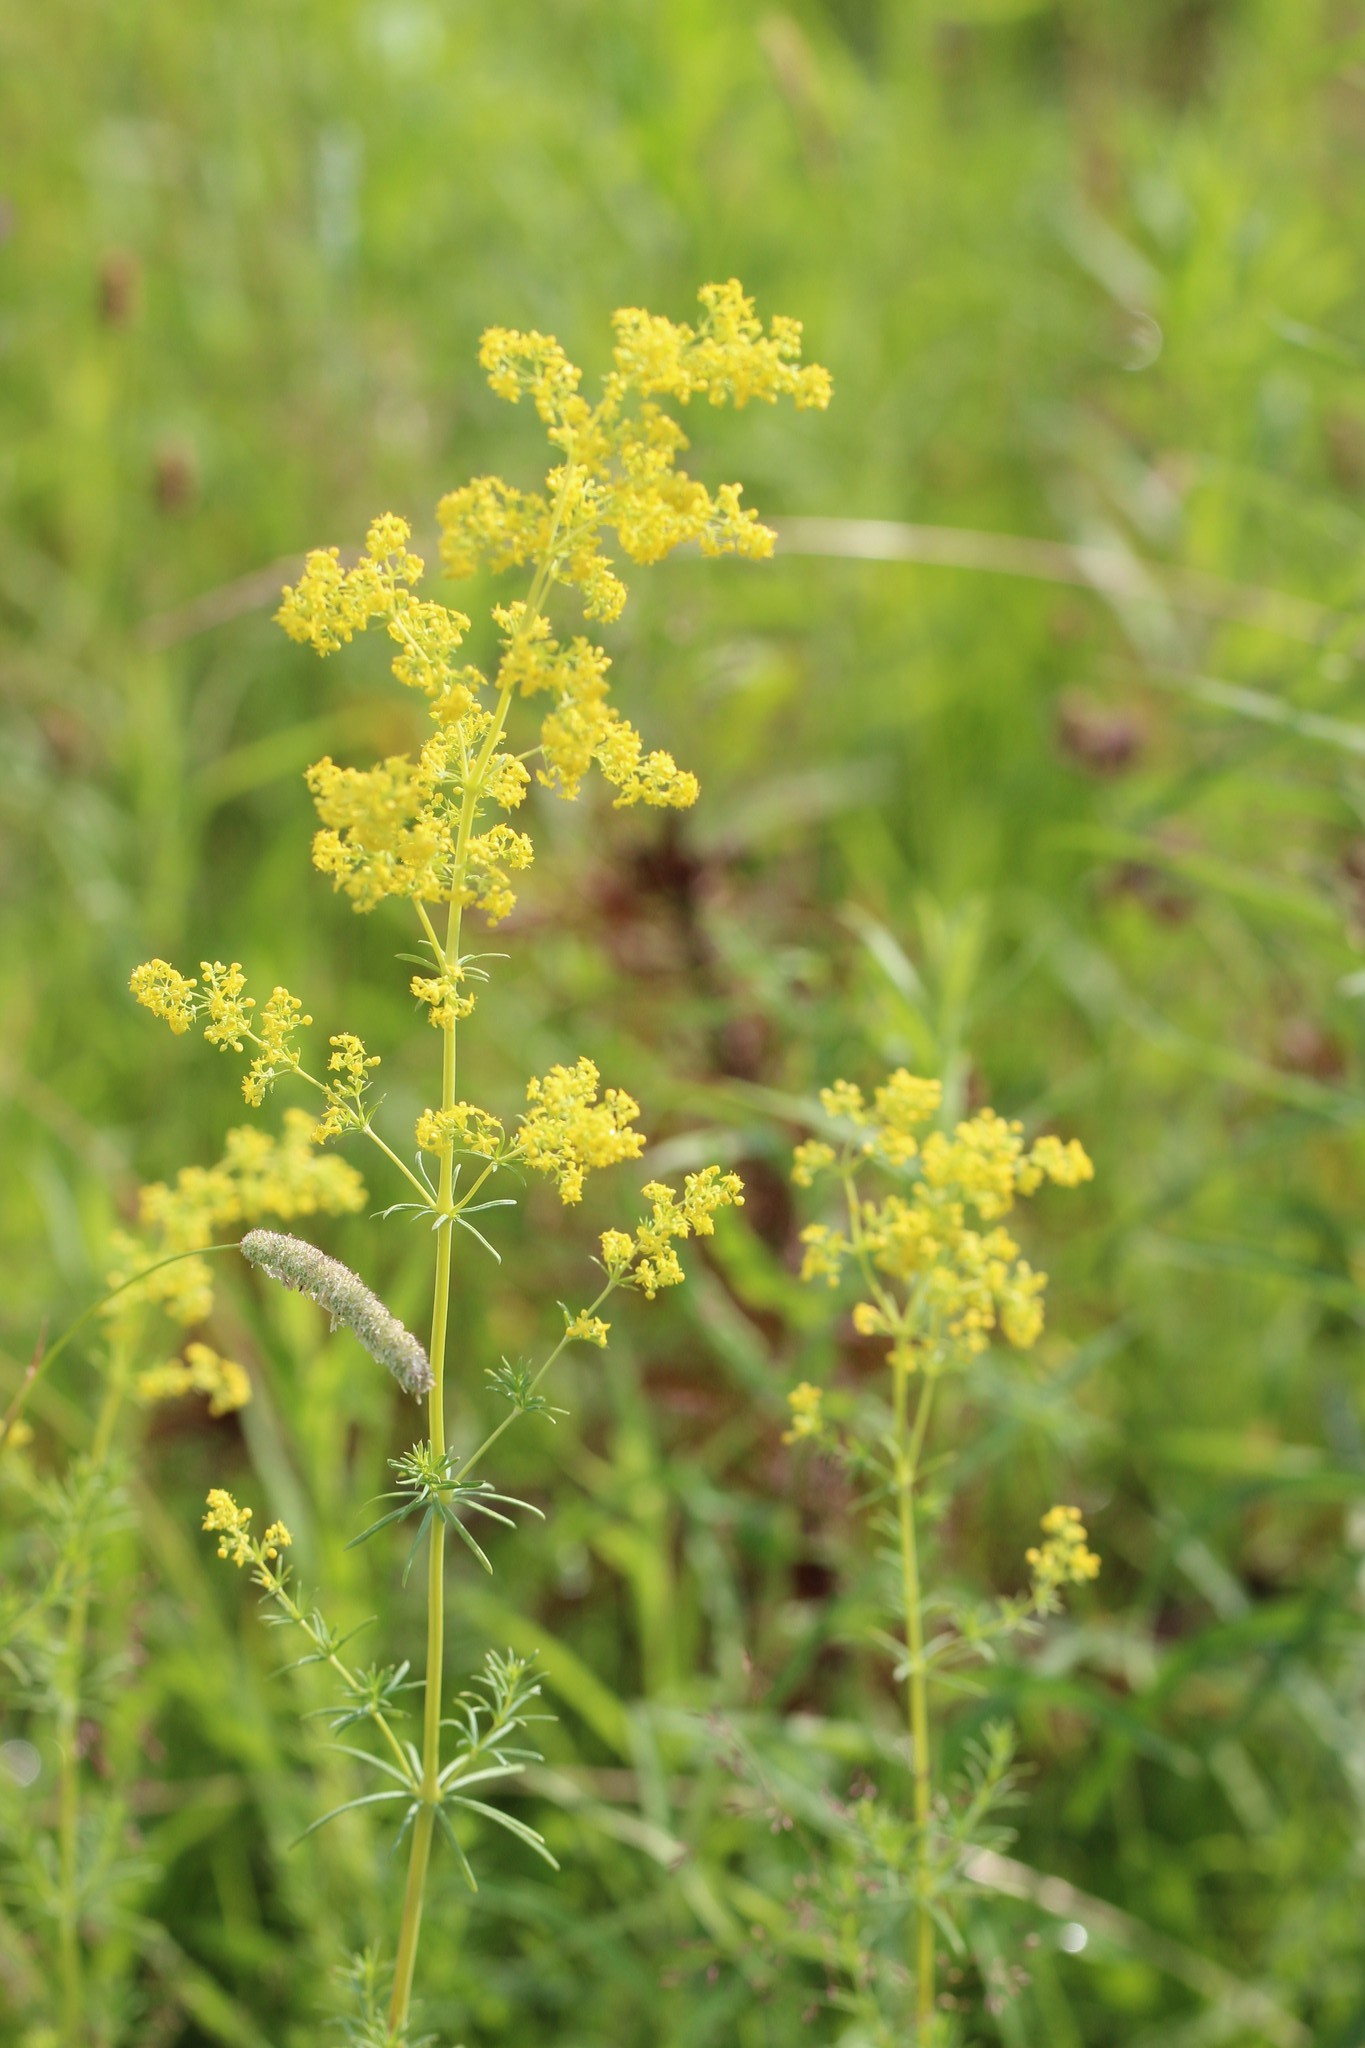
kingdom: Plantae
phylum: Tracheophyta
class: Magnoliopsida
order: Gentianales
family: Rubiaceae
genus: Galium
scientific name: Galium verum
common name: Lady's bedstraw
